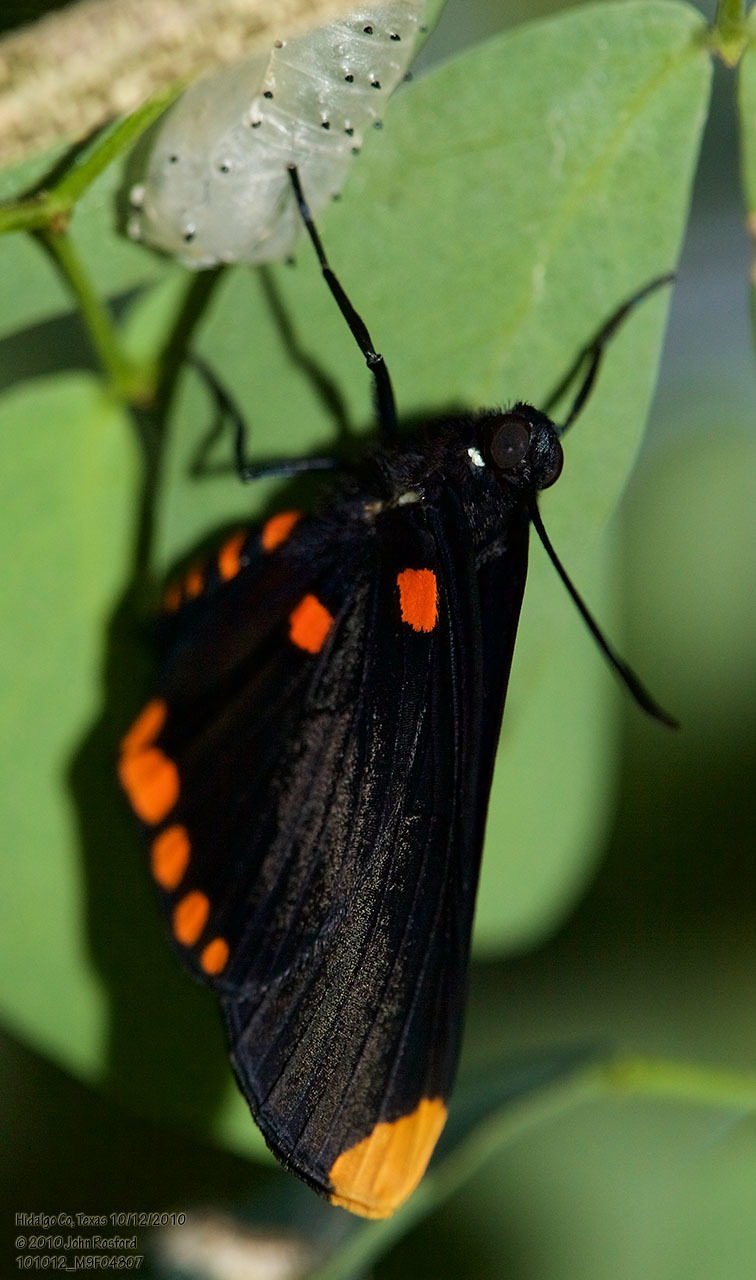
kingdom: Animalia
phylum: Arthropoda
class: Insecta
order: Lepidoptera
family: Lycaenidae
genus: Melanis
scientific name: Melanis pixe
